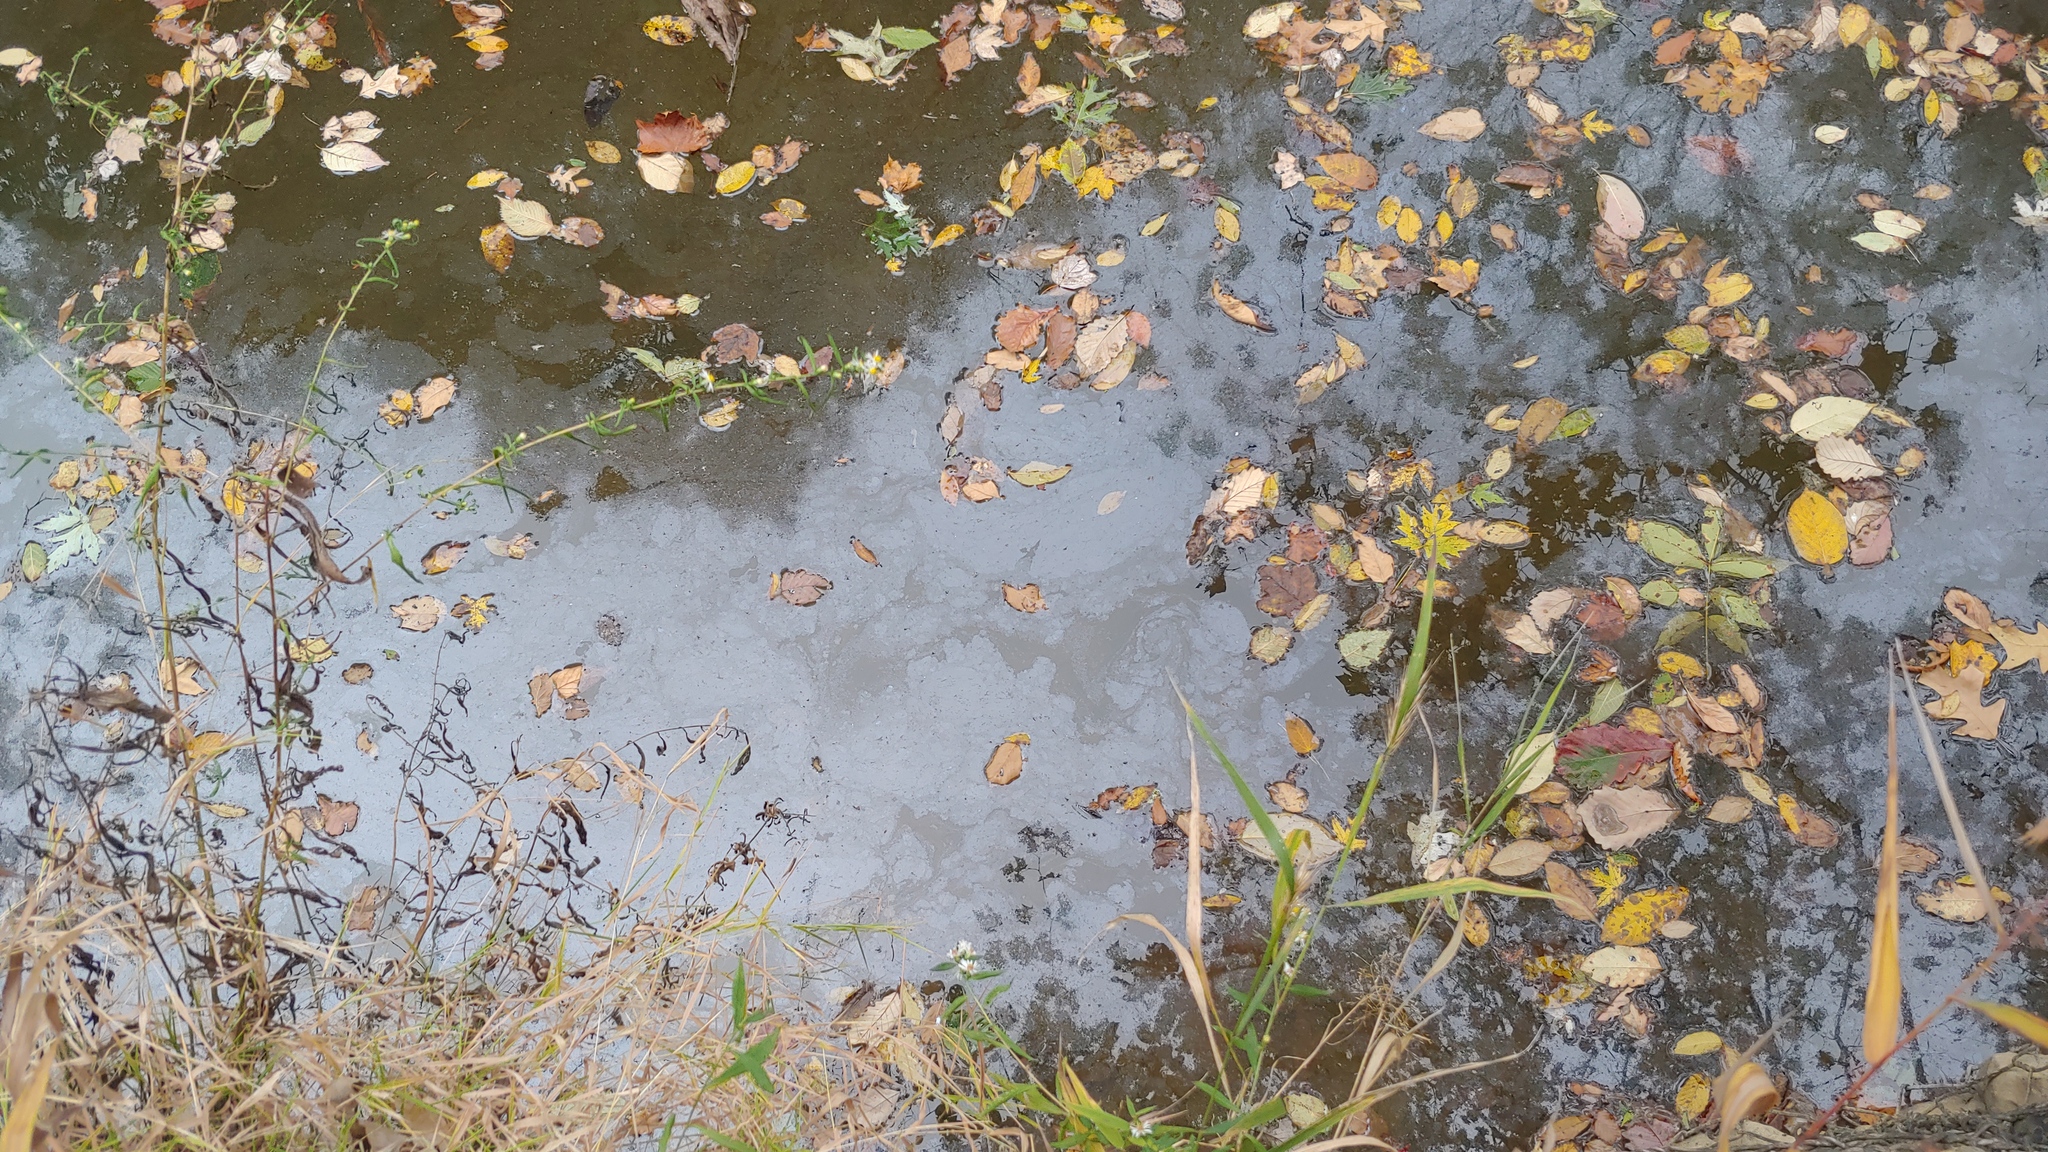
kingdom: Bacteria
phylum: Proteobacteria
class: Gammaproteobacteria
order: Burkholderiales
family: Burkholderiaceae
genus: Leptothrix
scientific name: Leptothrix discophora
